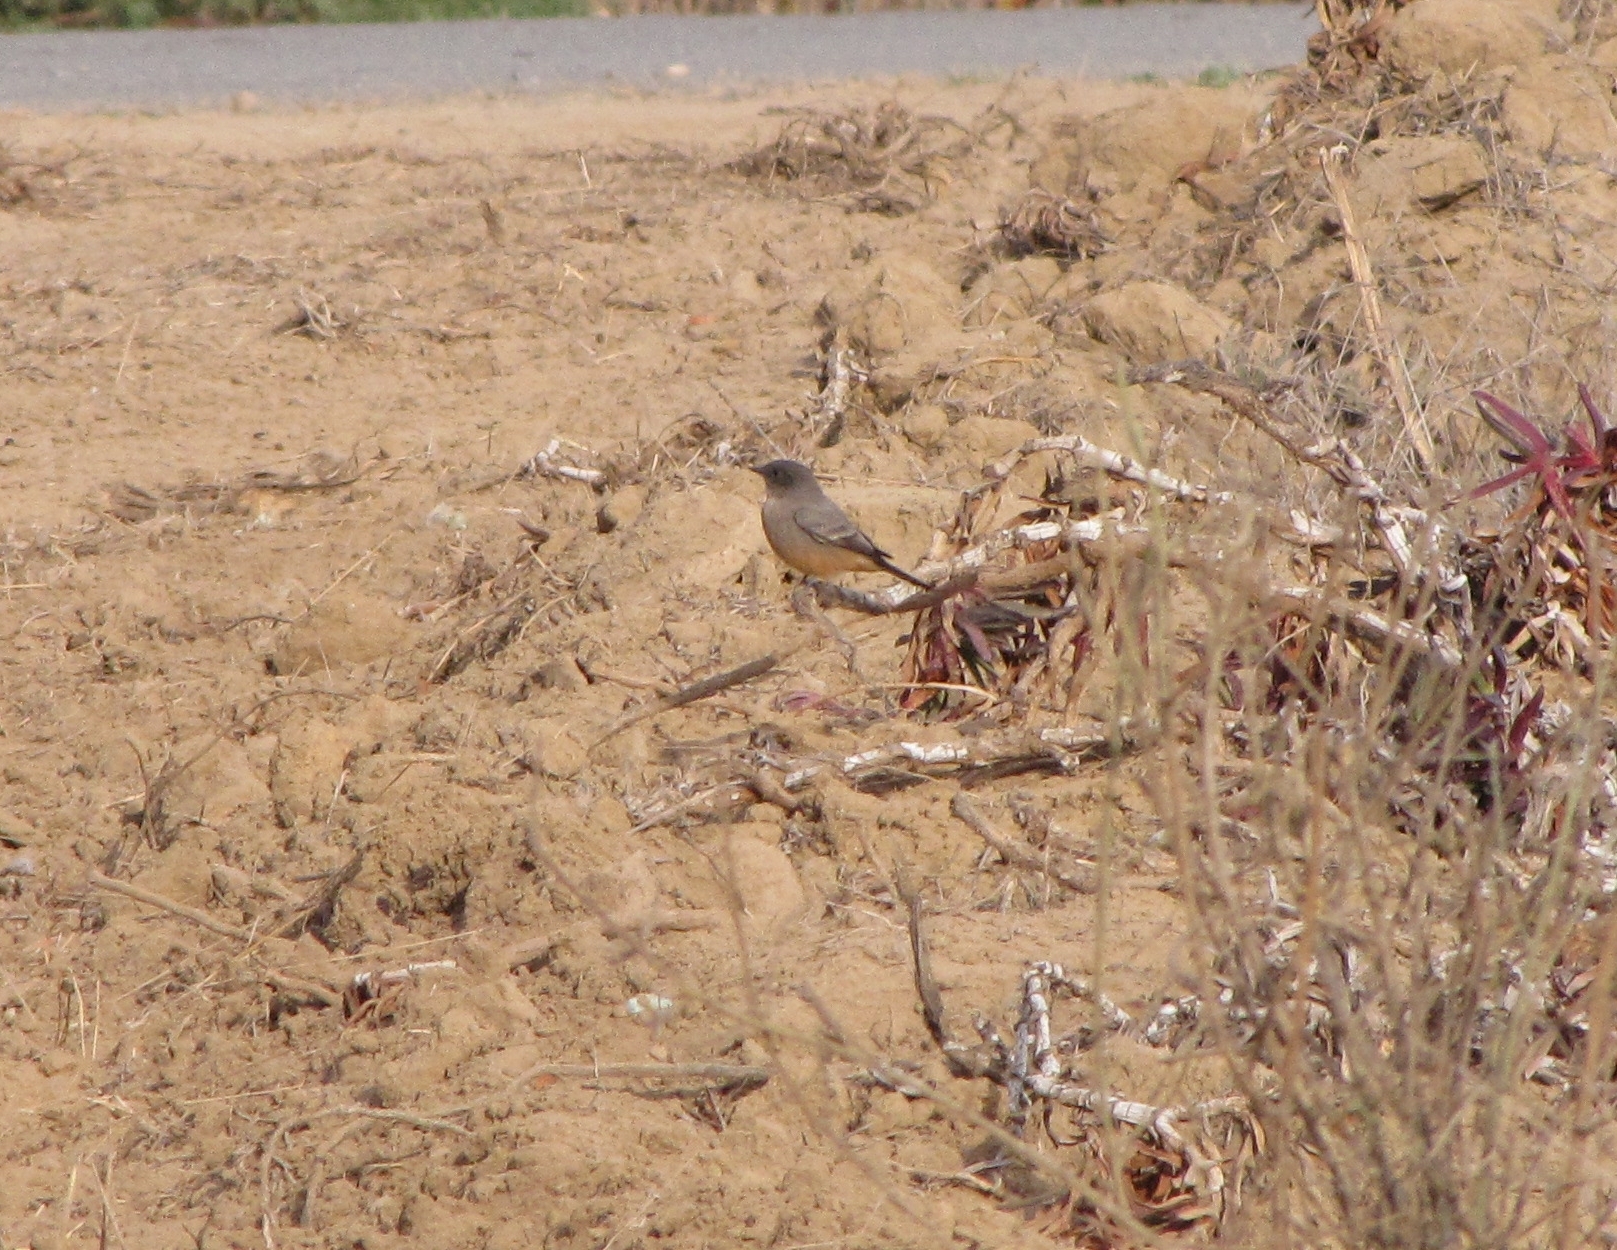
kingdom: Animalia
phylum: Chordata
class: Aves
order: Passeriformes
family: Tyrannidae
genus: Sayornis
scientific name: Sayornis saya
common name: Say's phoebe
